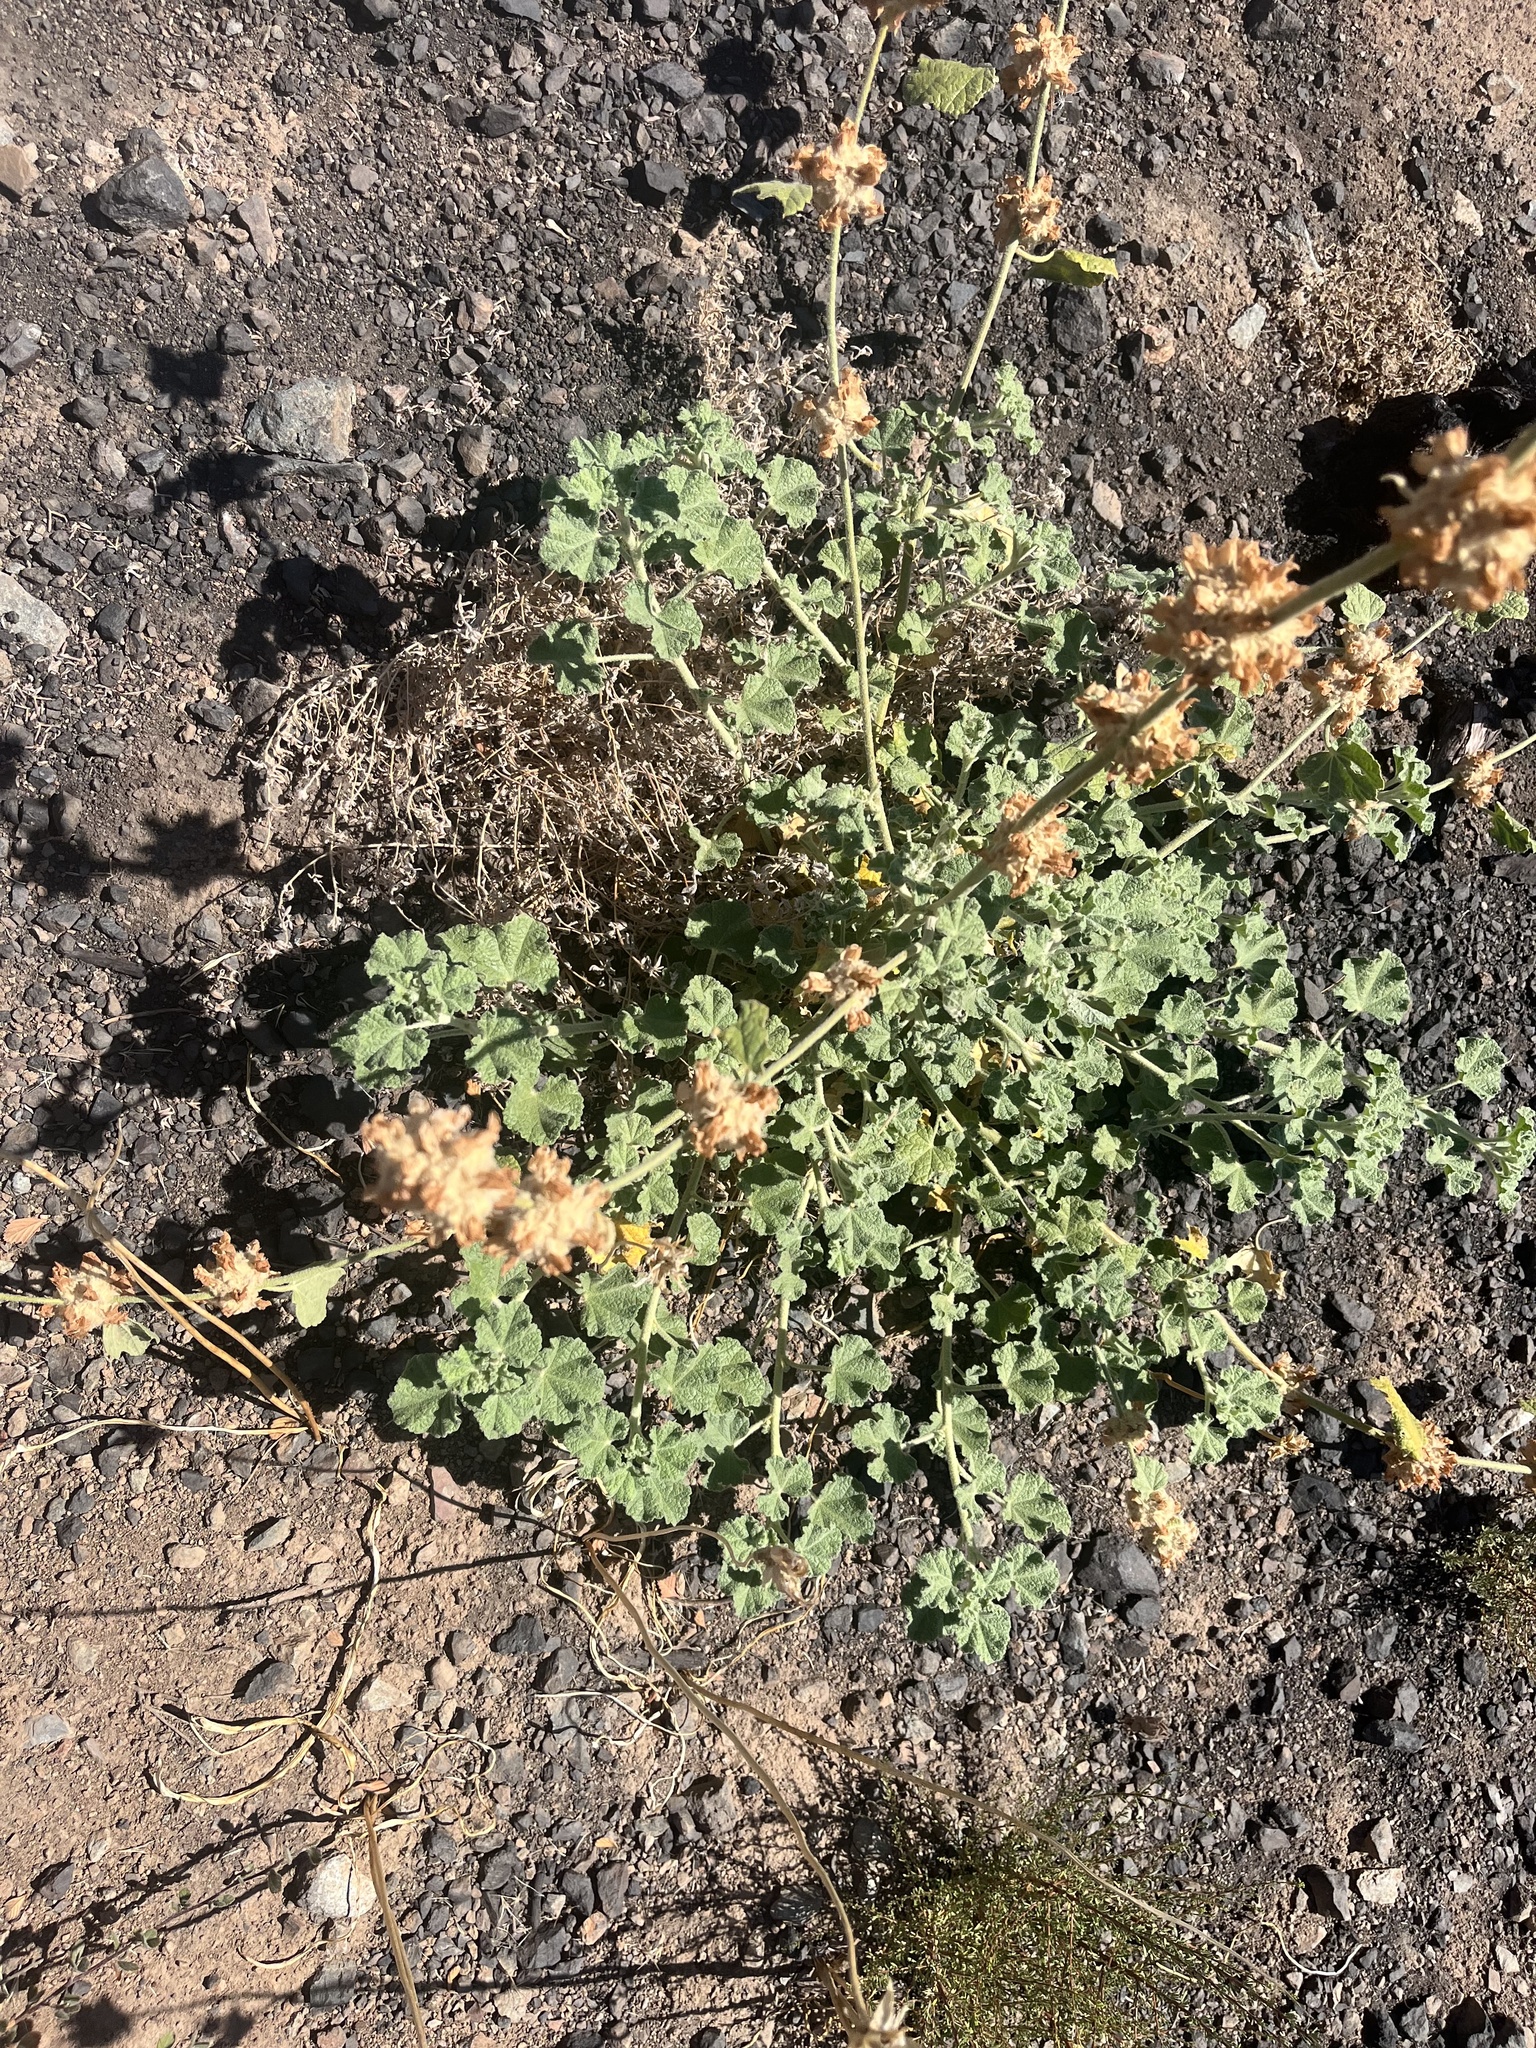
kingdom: Plantae
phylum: Tracheophyta
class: Magnoliopsida
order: Malvales
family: Malvaceae
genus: Malacothamnus
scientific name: Malacothamnus
